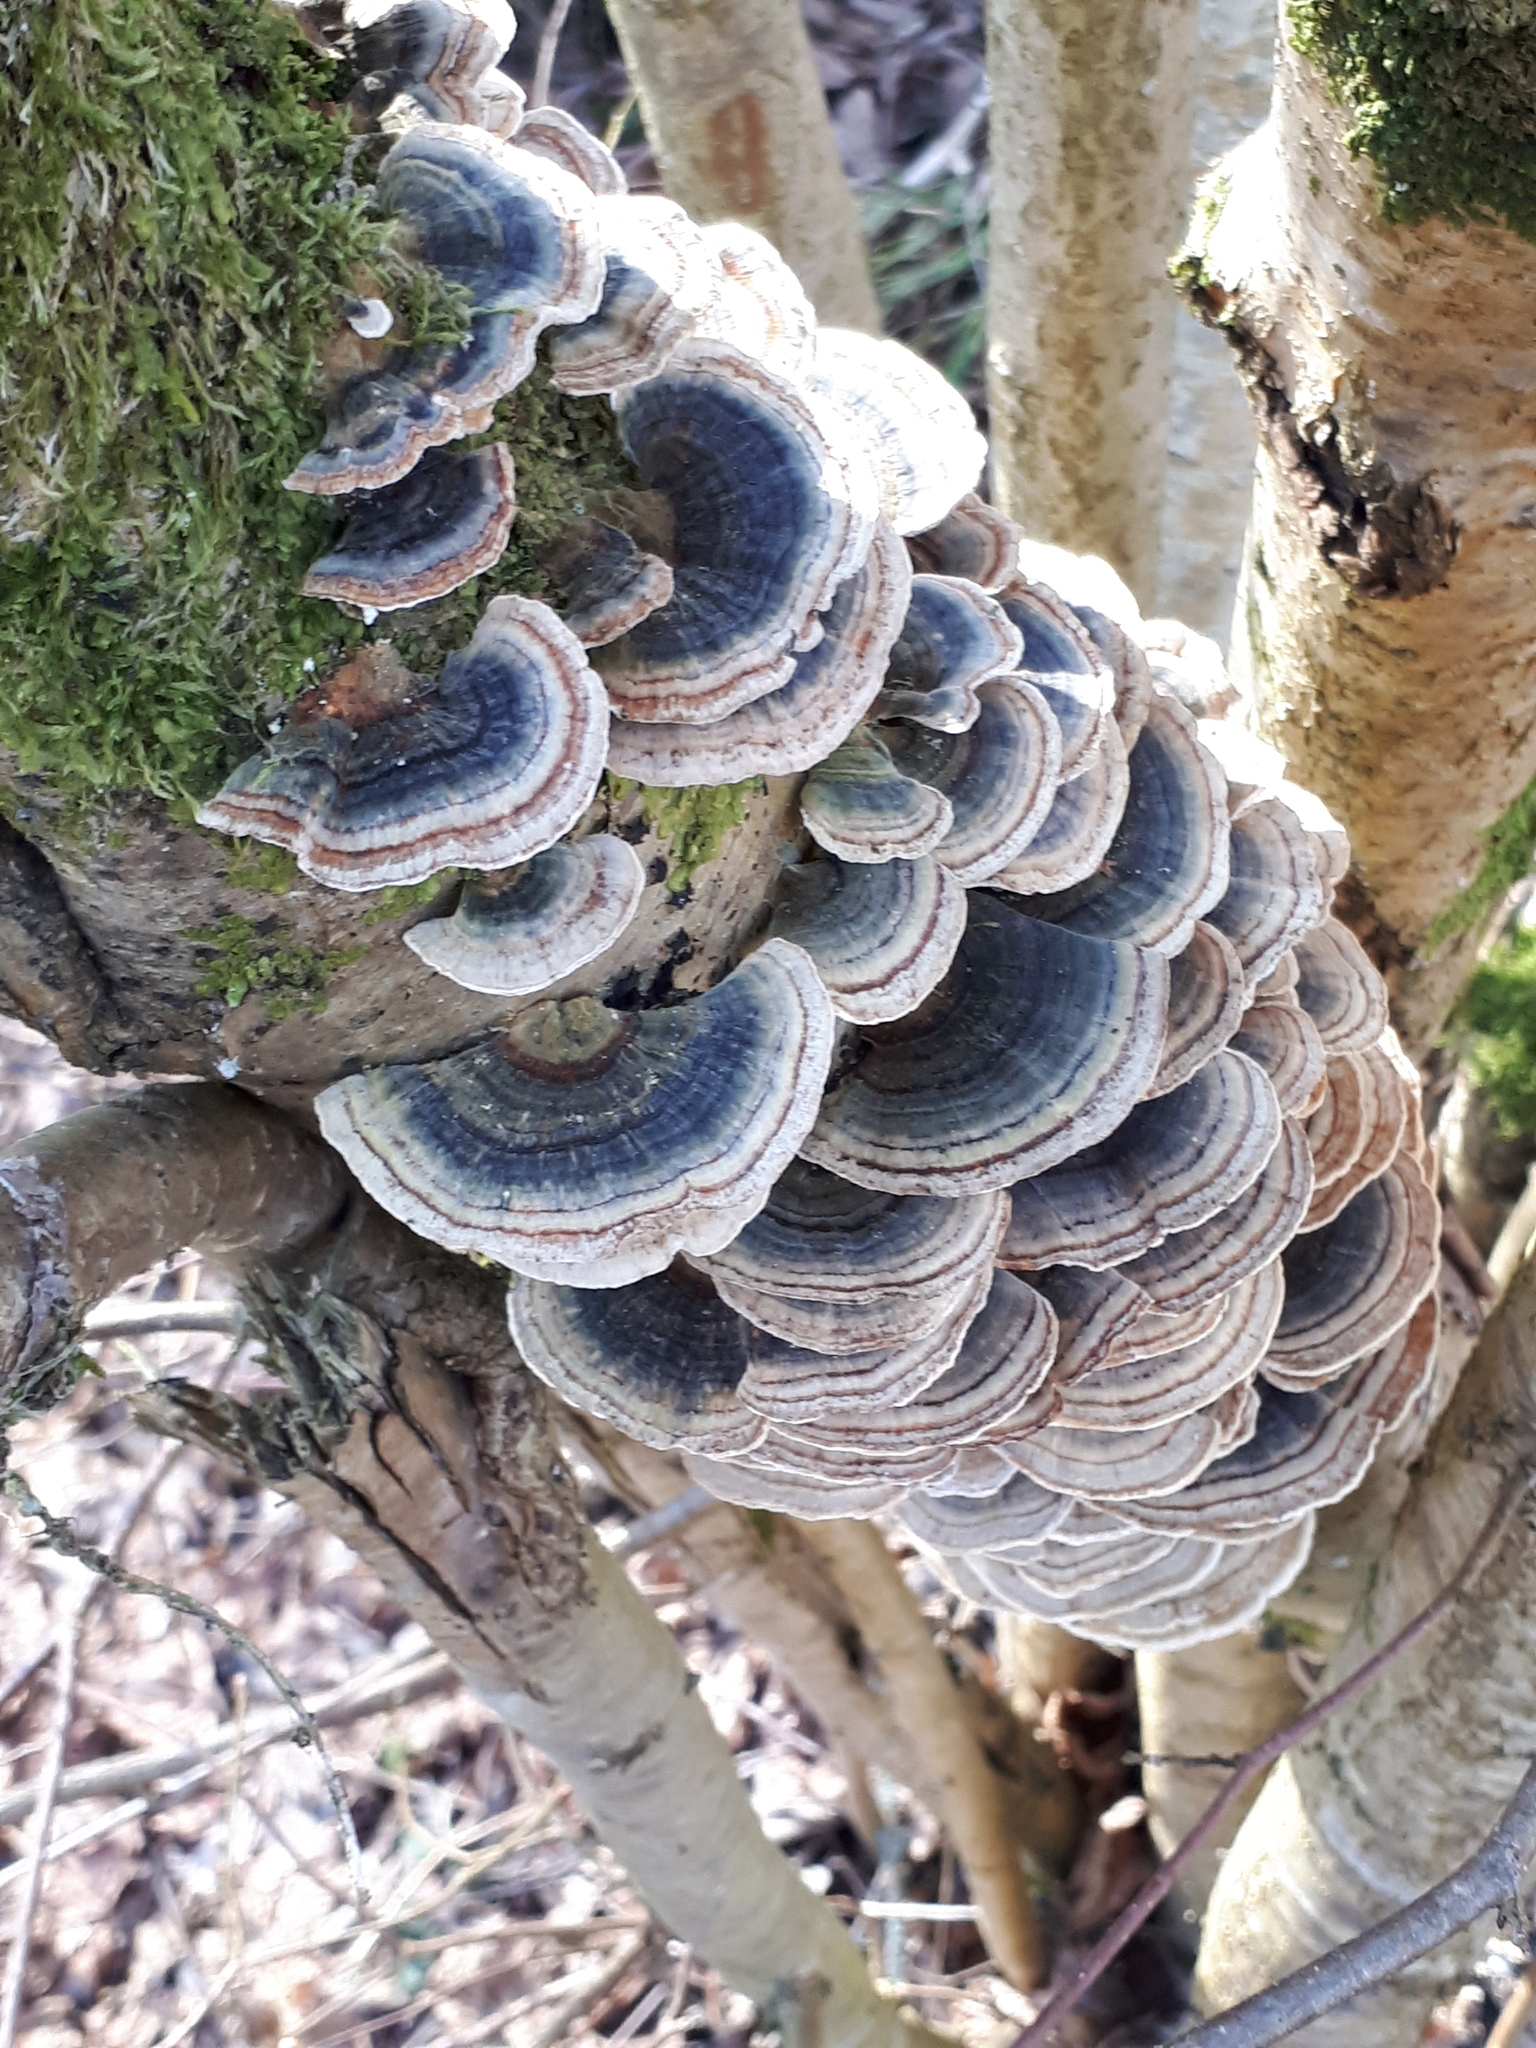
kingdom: Fungi
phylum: Basidiomycota
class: Agaricomycetes
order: Polyporales
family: Polyporaceae
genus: Trametes
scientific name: Trametes versicolor
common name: Turkeytail
